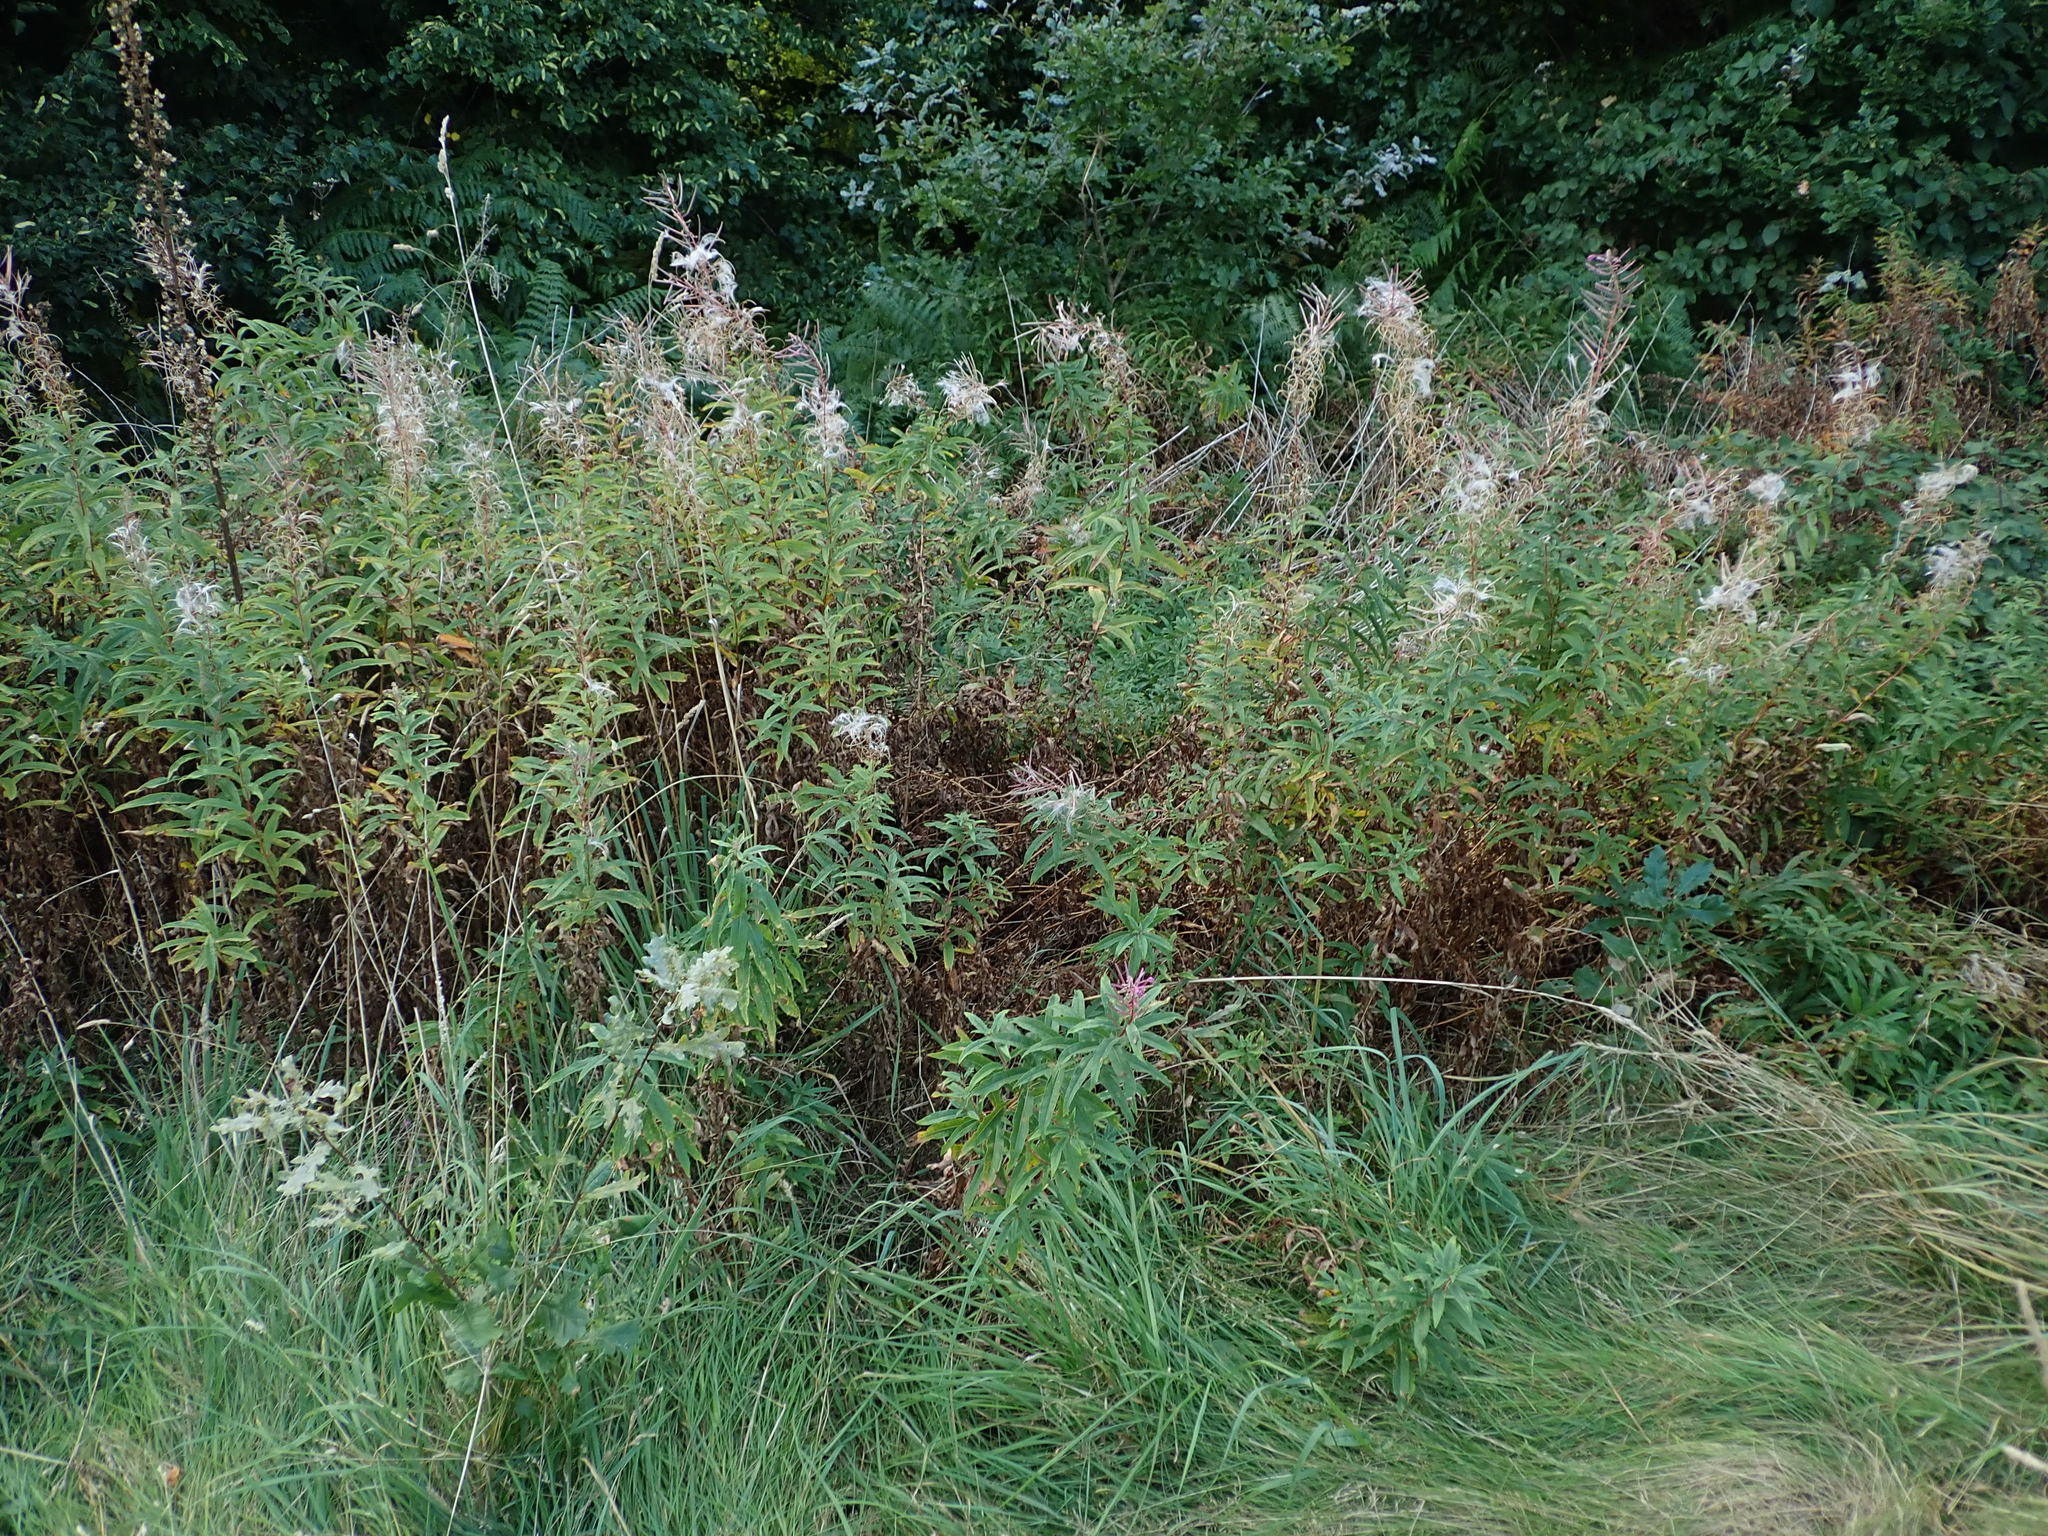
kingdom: Plantae
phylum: Tracheophyta
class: Magnoliopsida
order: Myrtales
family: Onagraceae
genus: Chamaenerion
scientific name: Chamaenerion angustifolium
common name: Fireweed
